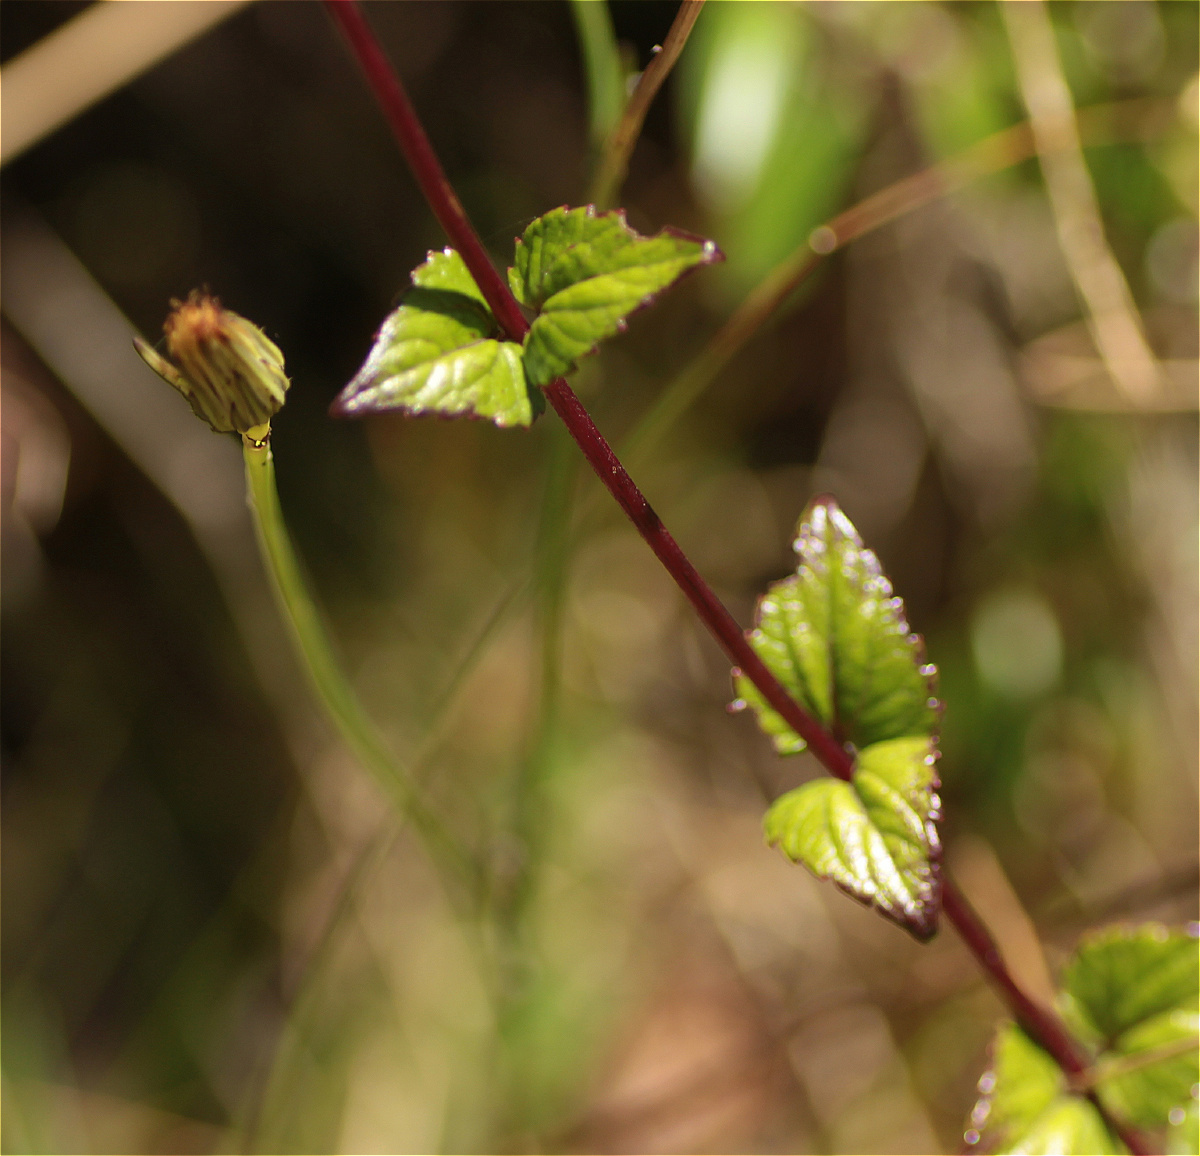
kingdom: Plantae
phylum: Tracheophyta
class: Magnoliopsida
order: Asterales
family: Asteraceae
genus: Ageratina
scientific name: Ageratina gracilis
